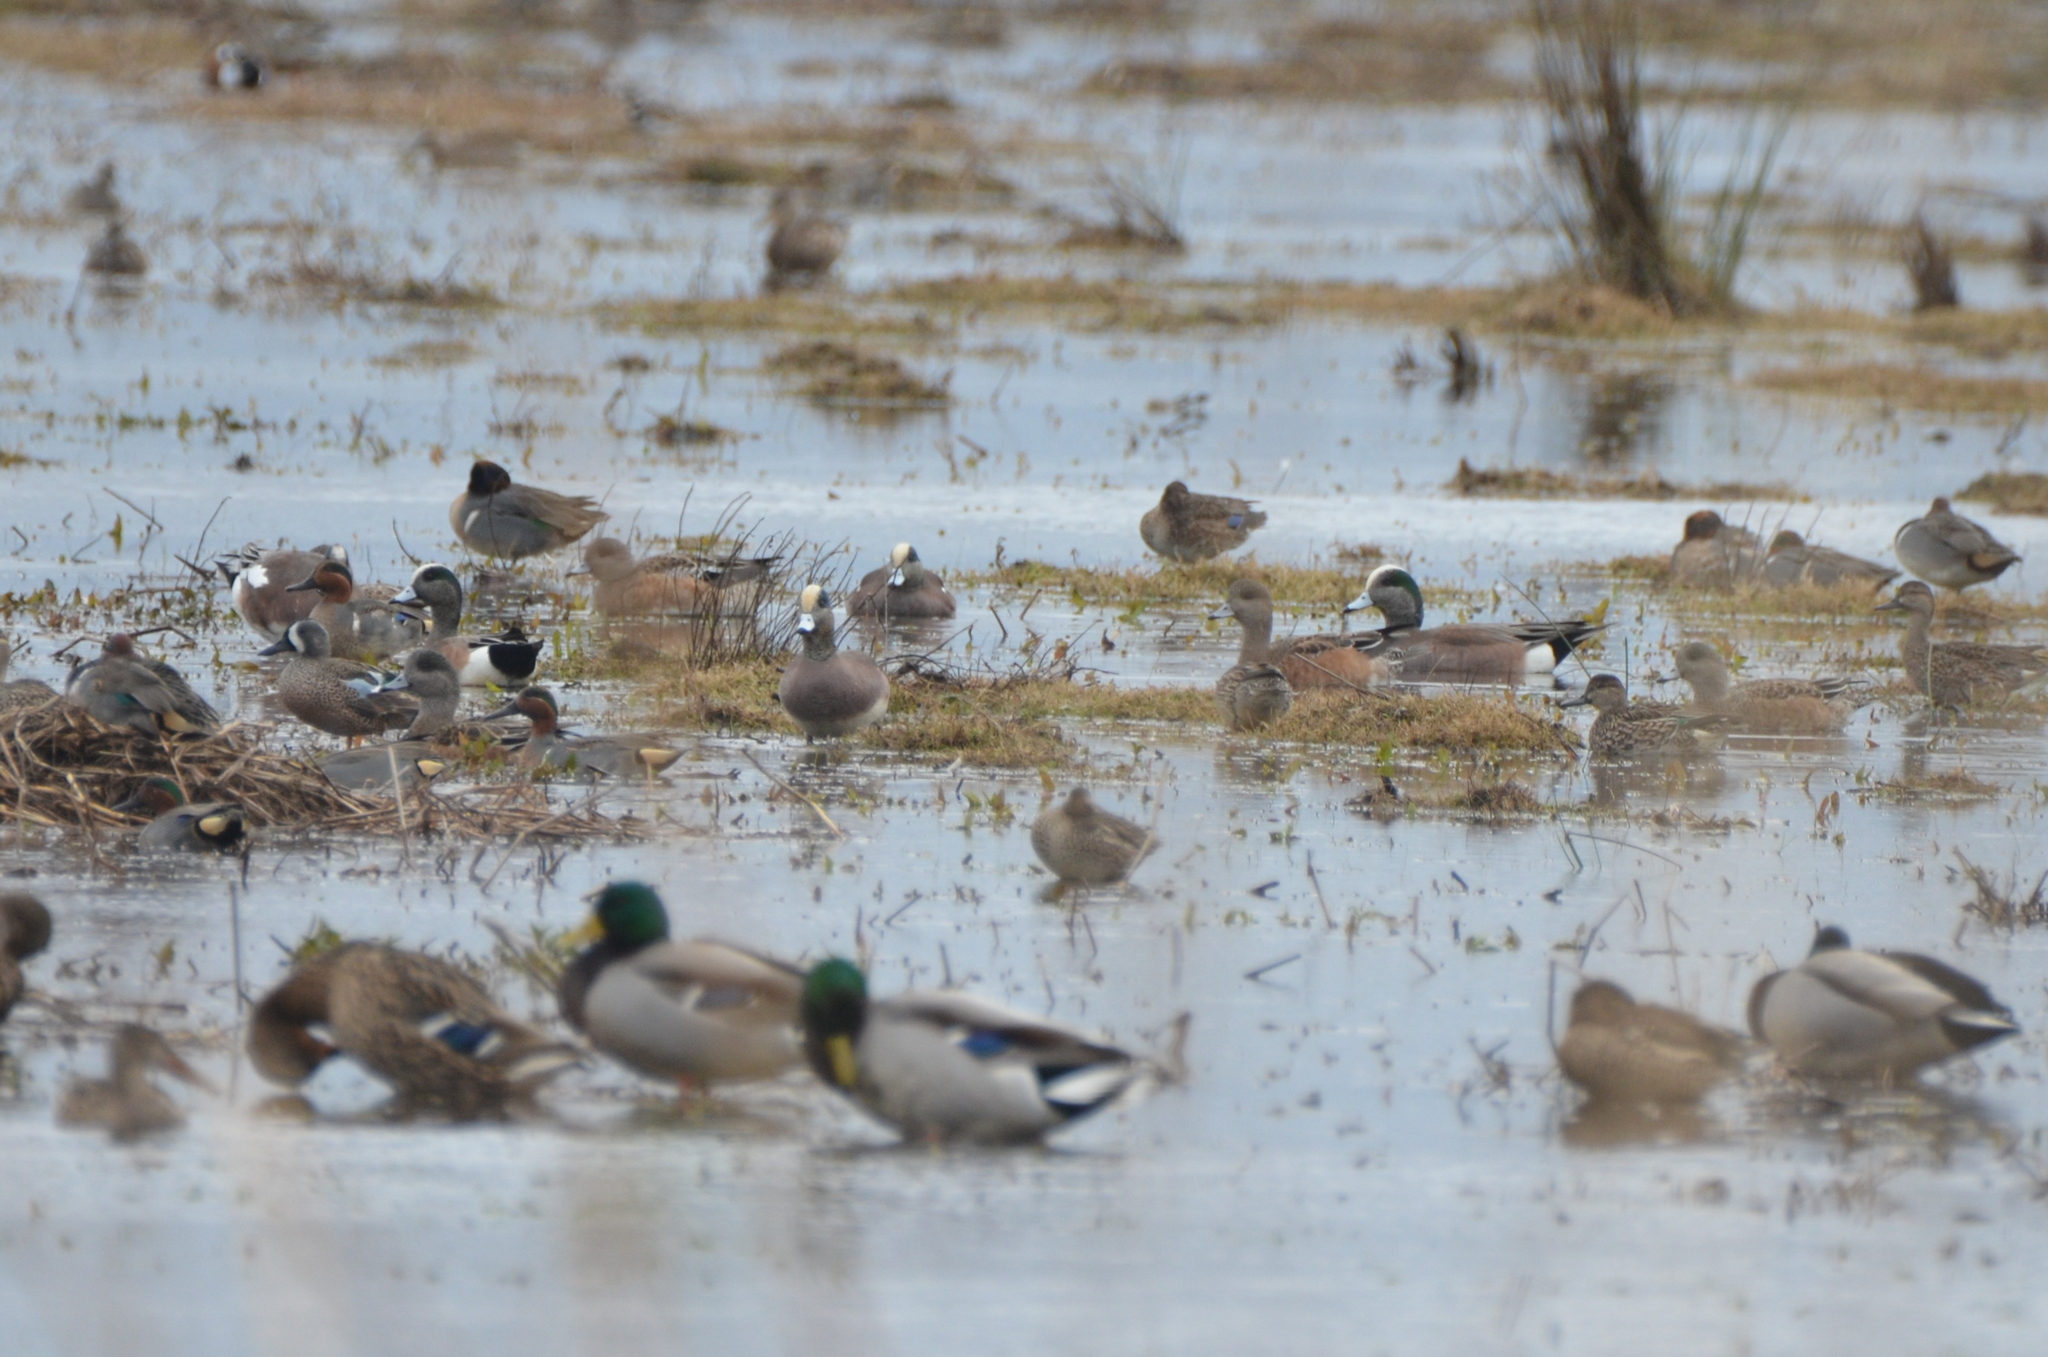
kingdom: Animalia
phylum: Chordata
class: Aves
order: Anseriformes
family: Anatidae
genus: Mareca
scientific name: Mareca americana
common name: American wigeon
